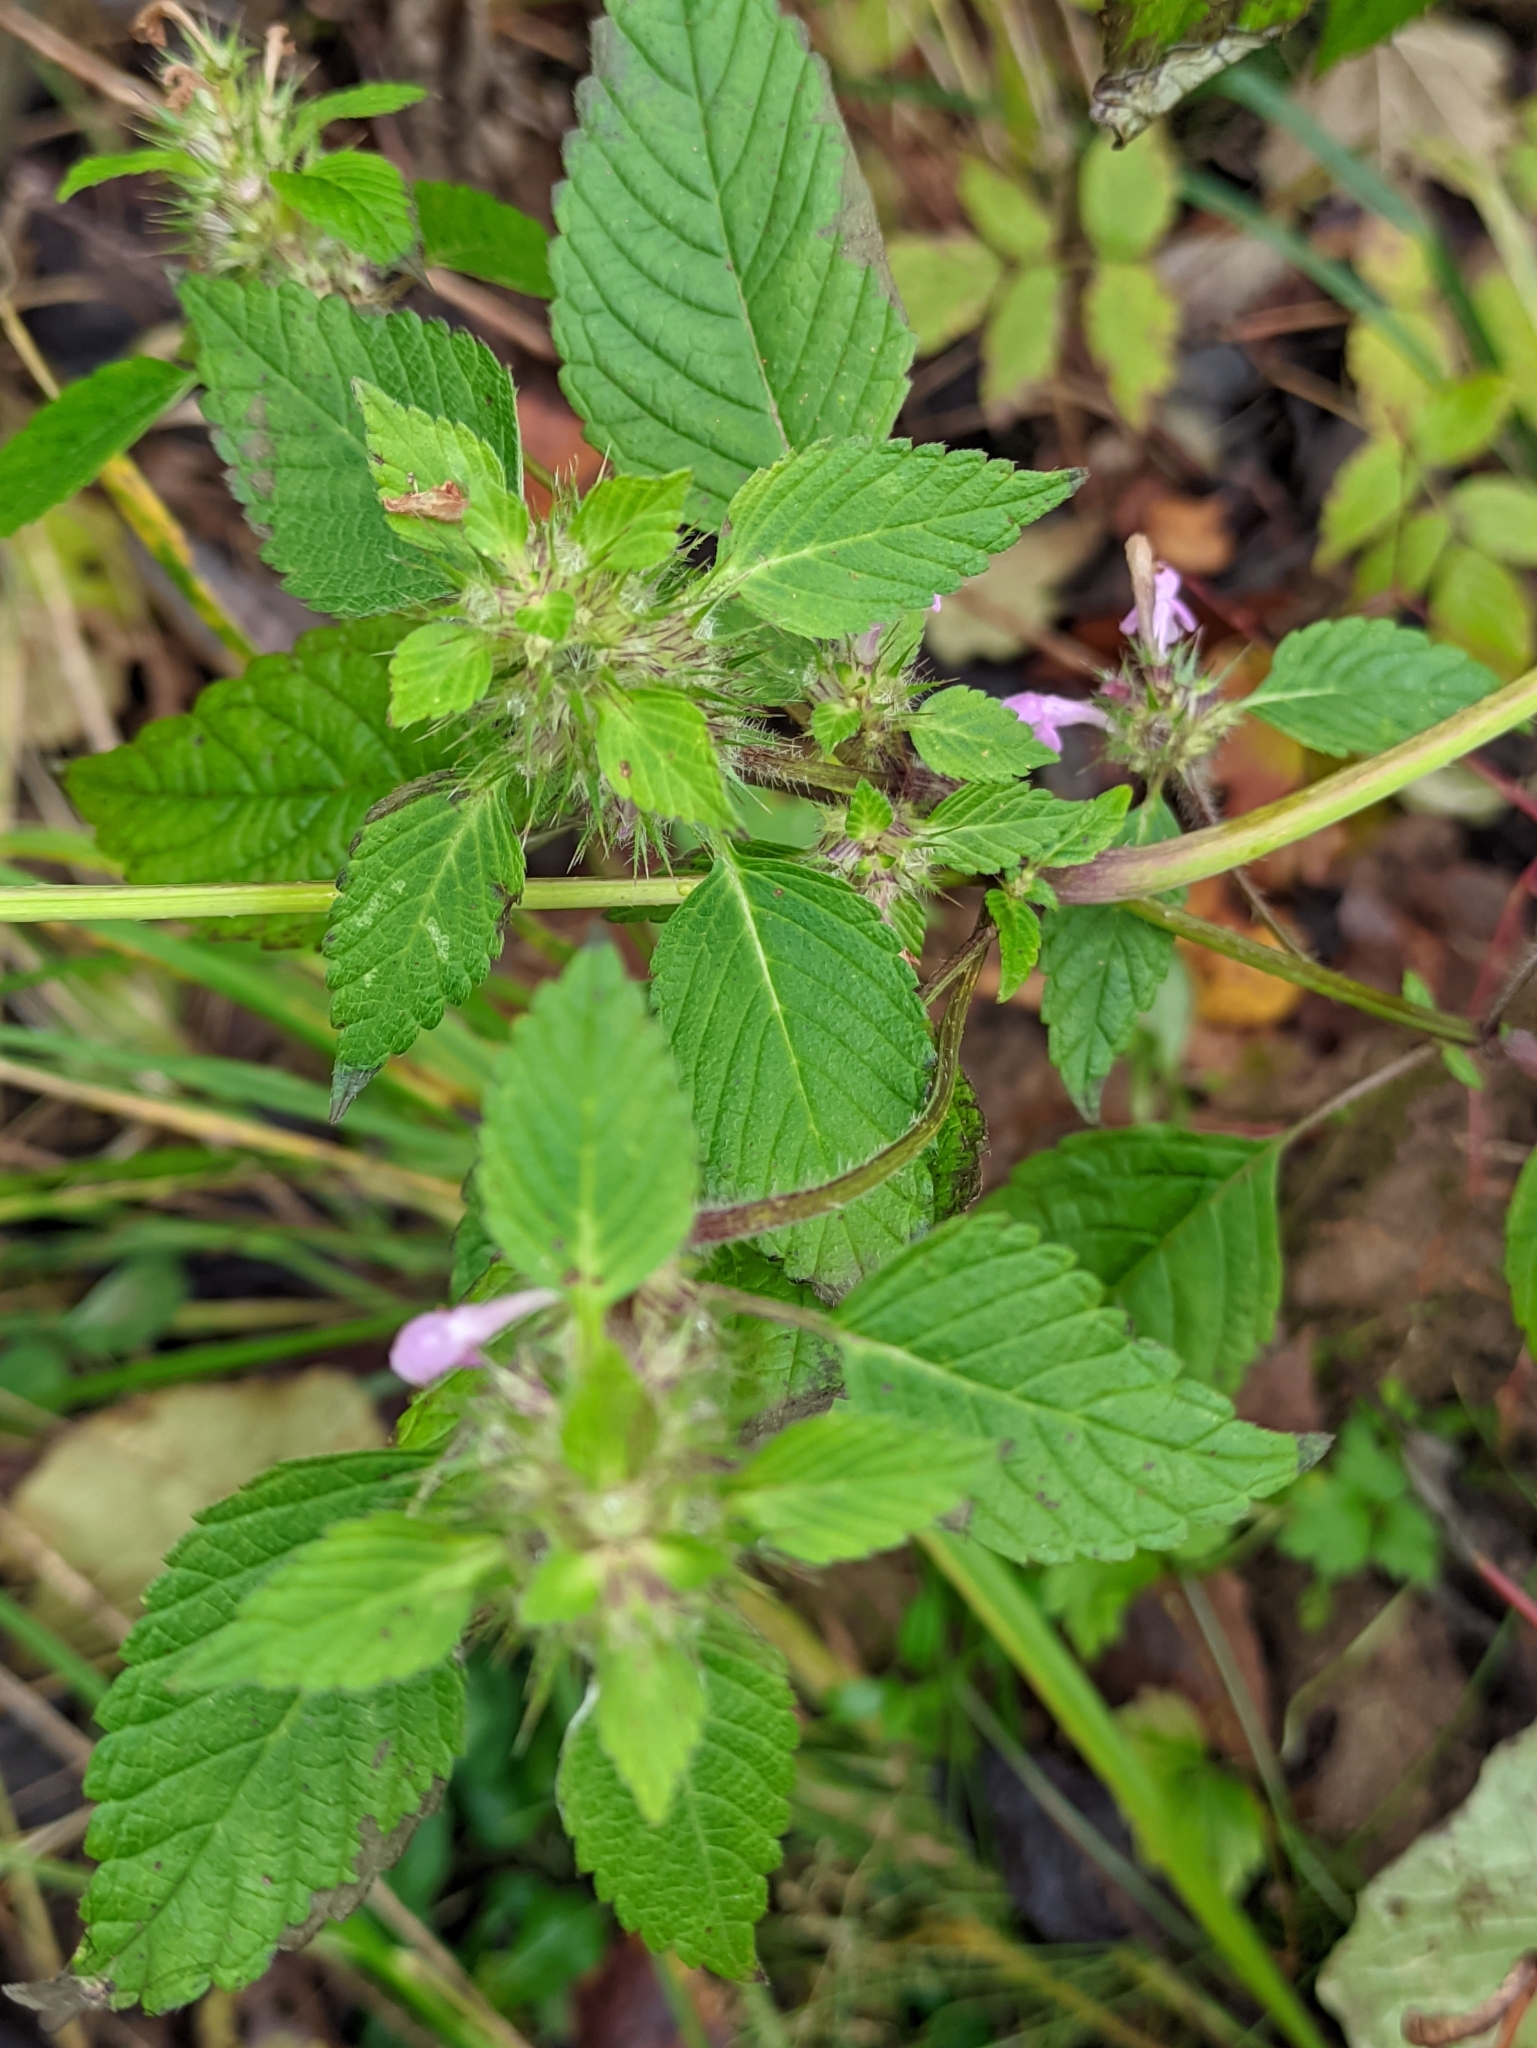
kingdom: Plantae
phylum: Tracheophyta
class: Magnoliopsida
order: Lamiales
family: Lamiaceae
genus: Galeopsis
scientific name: Galeopsis tetrahit
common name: Common hemp-nettle
